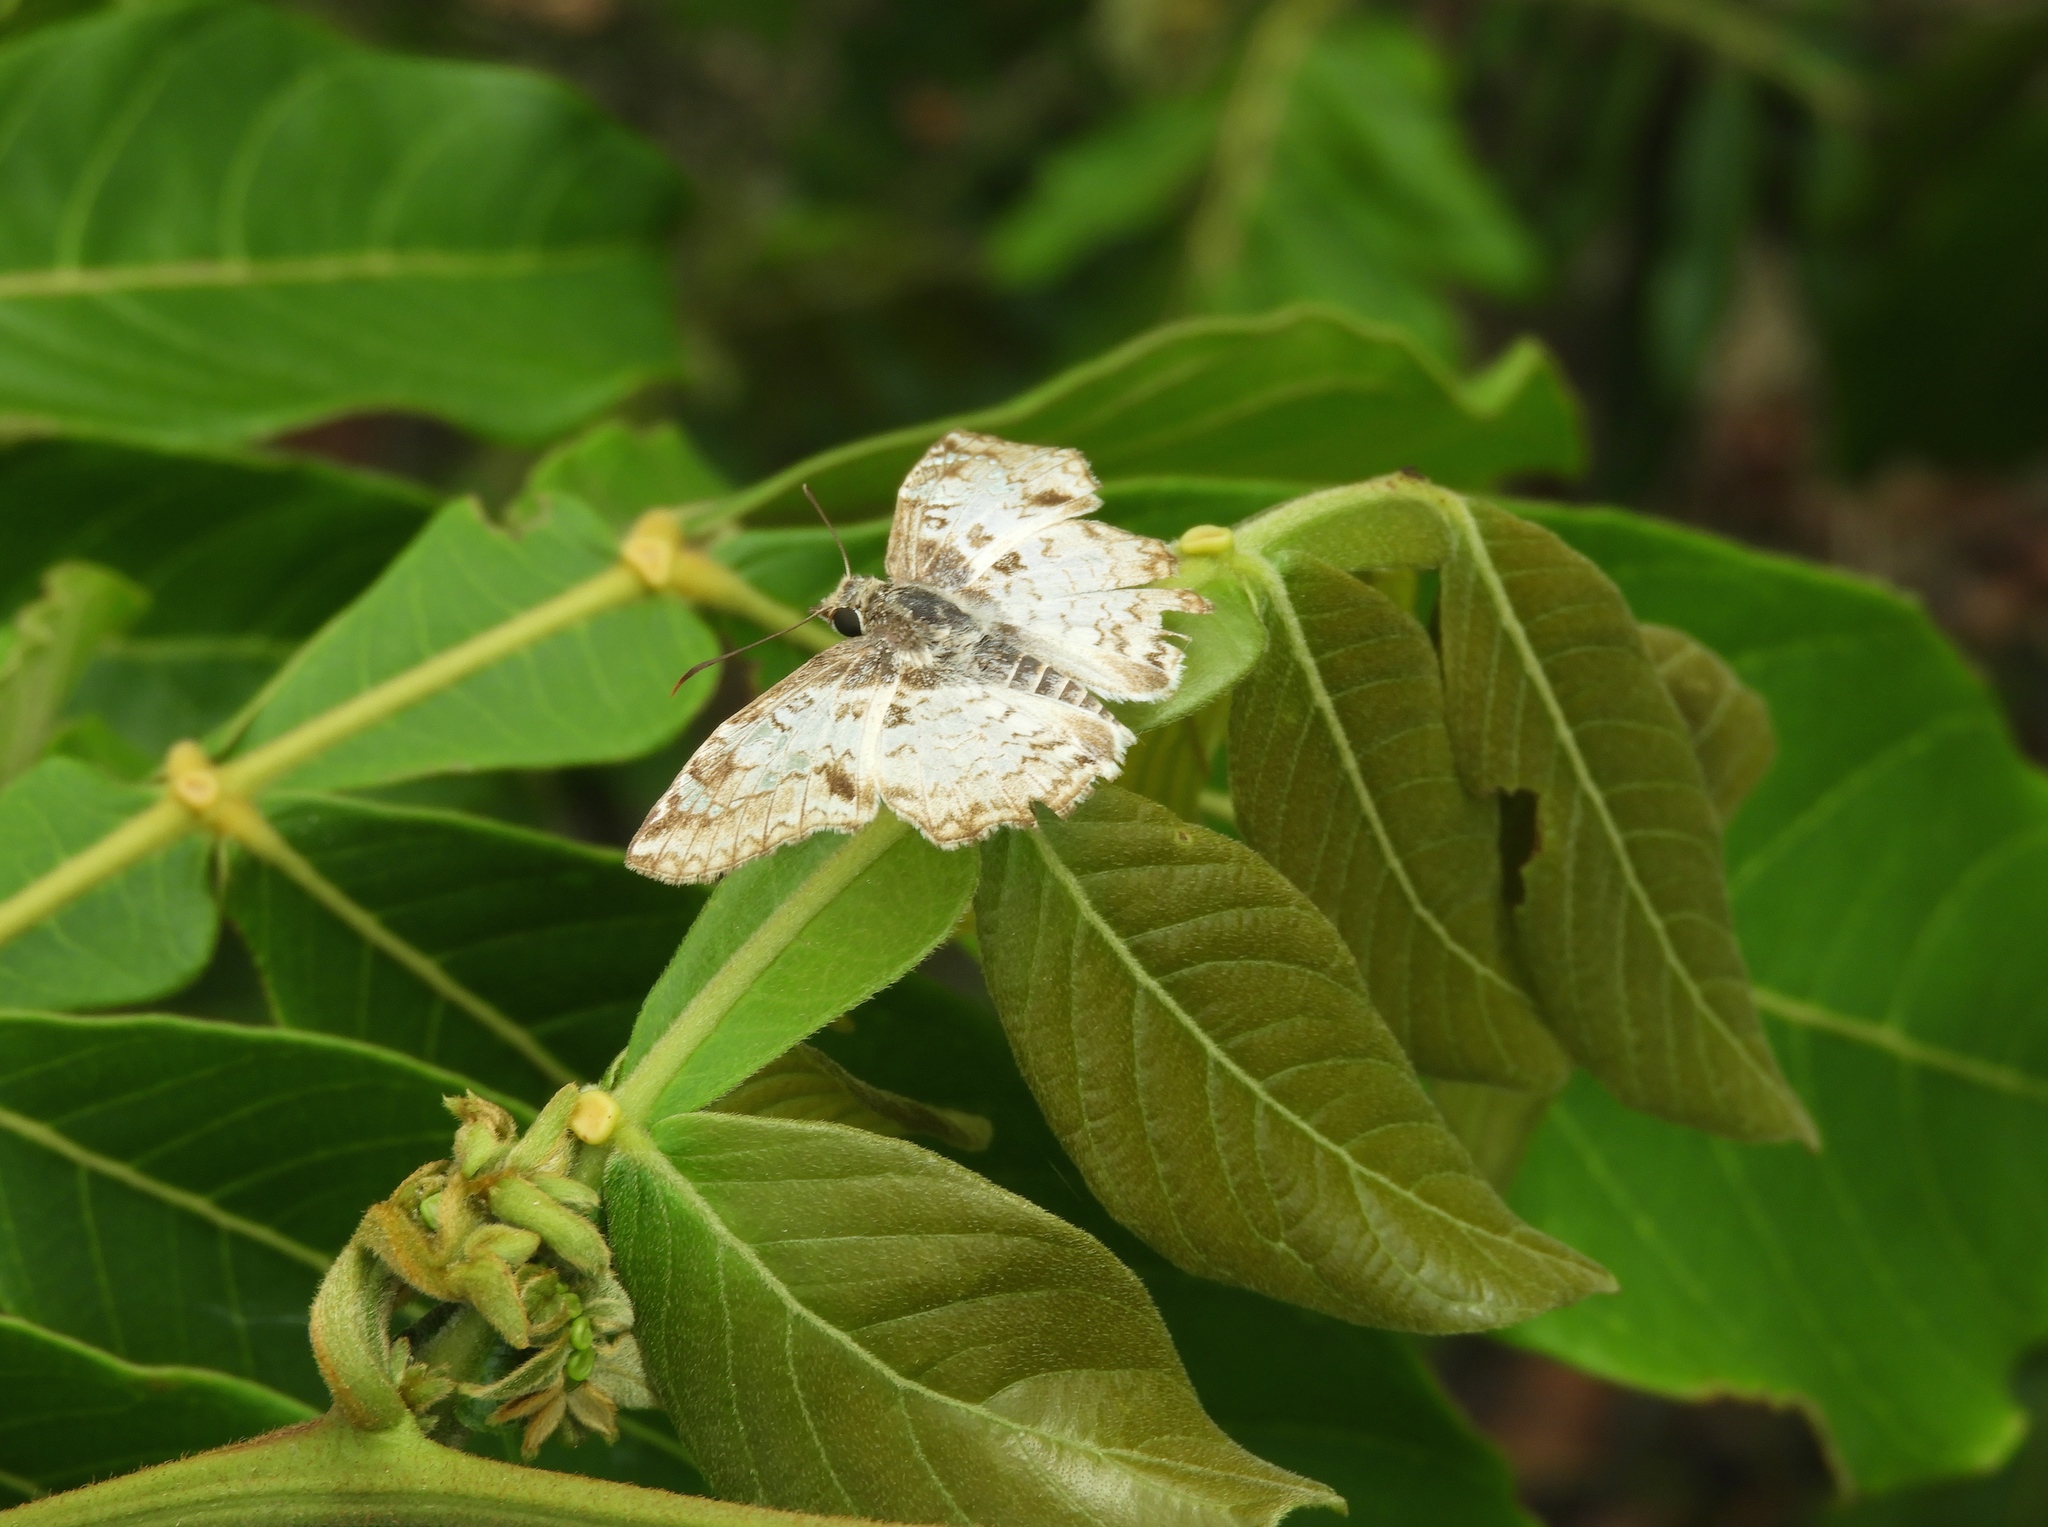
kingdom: Animalia
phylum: Arthropoda
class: Insecta
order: Lepidoptera
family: Hesperiidae
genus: Antigonus
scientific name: Antigonus emorsa
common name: White spurwing
